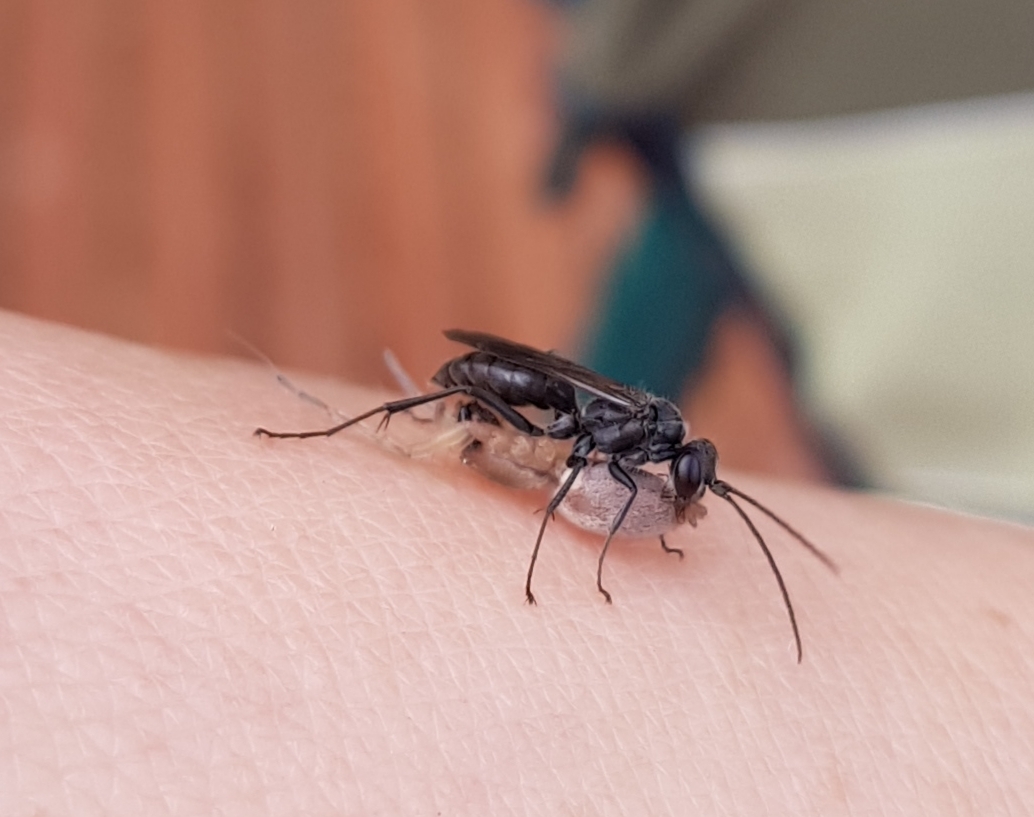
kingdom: Animalia
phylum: Arthropoda
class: Insecta
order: Hymenoptera
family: Pompilidae
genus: Auplopus
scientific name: Auplopus carbonarius
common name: Spider wasp
